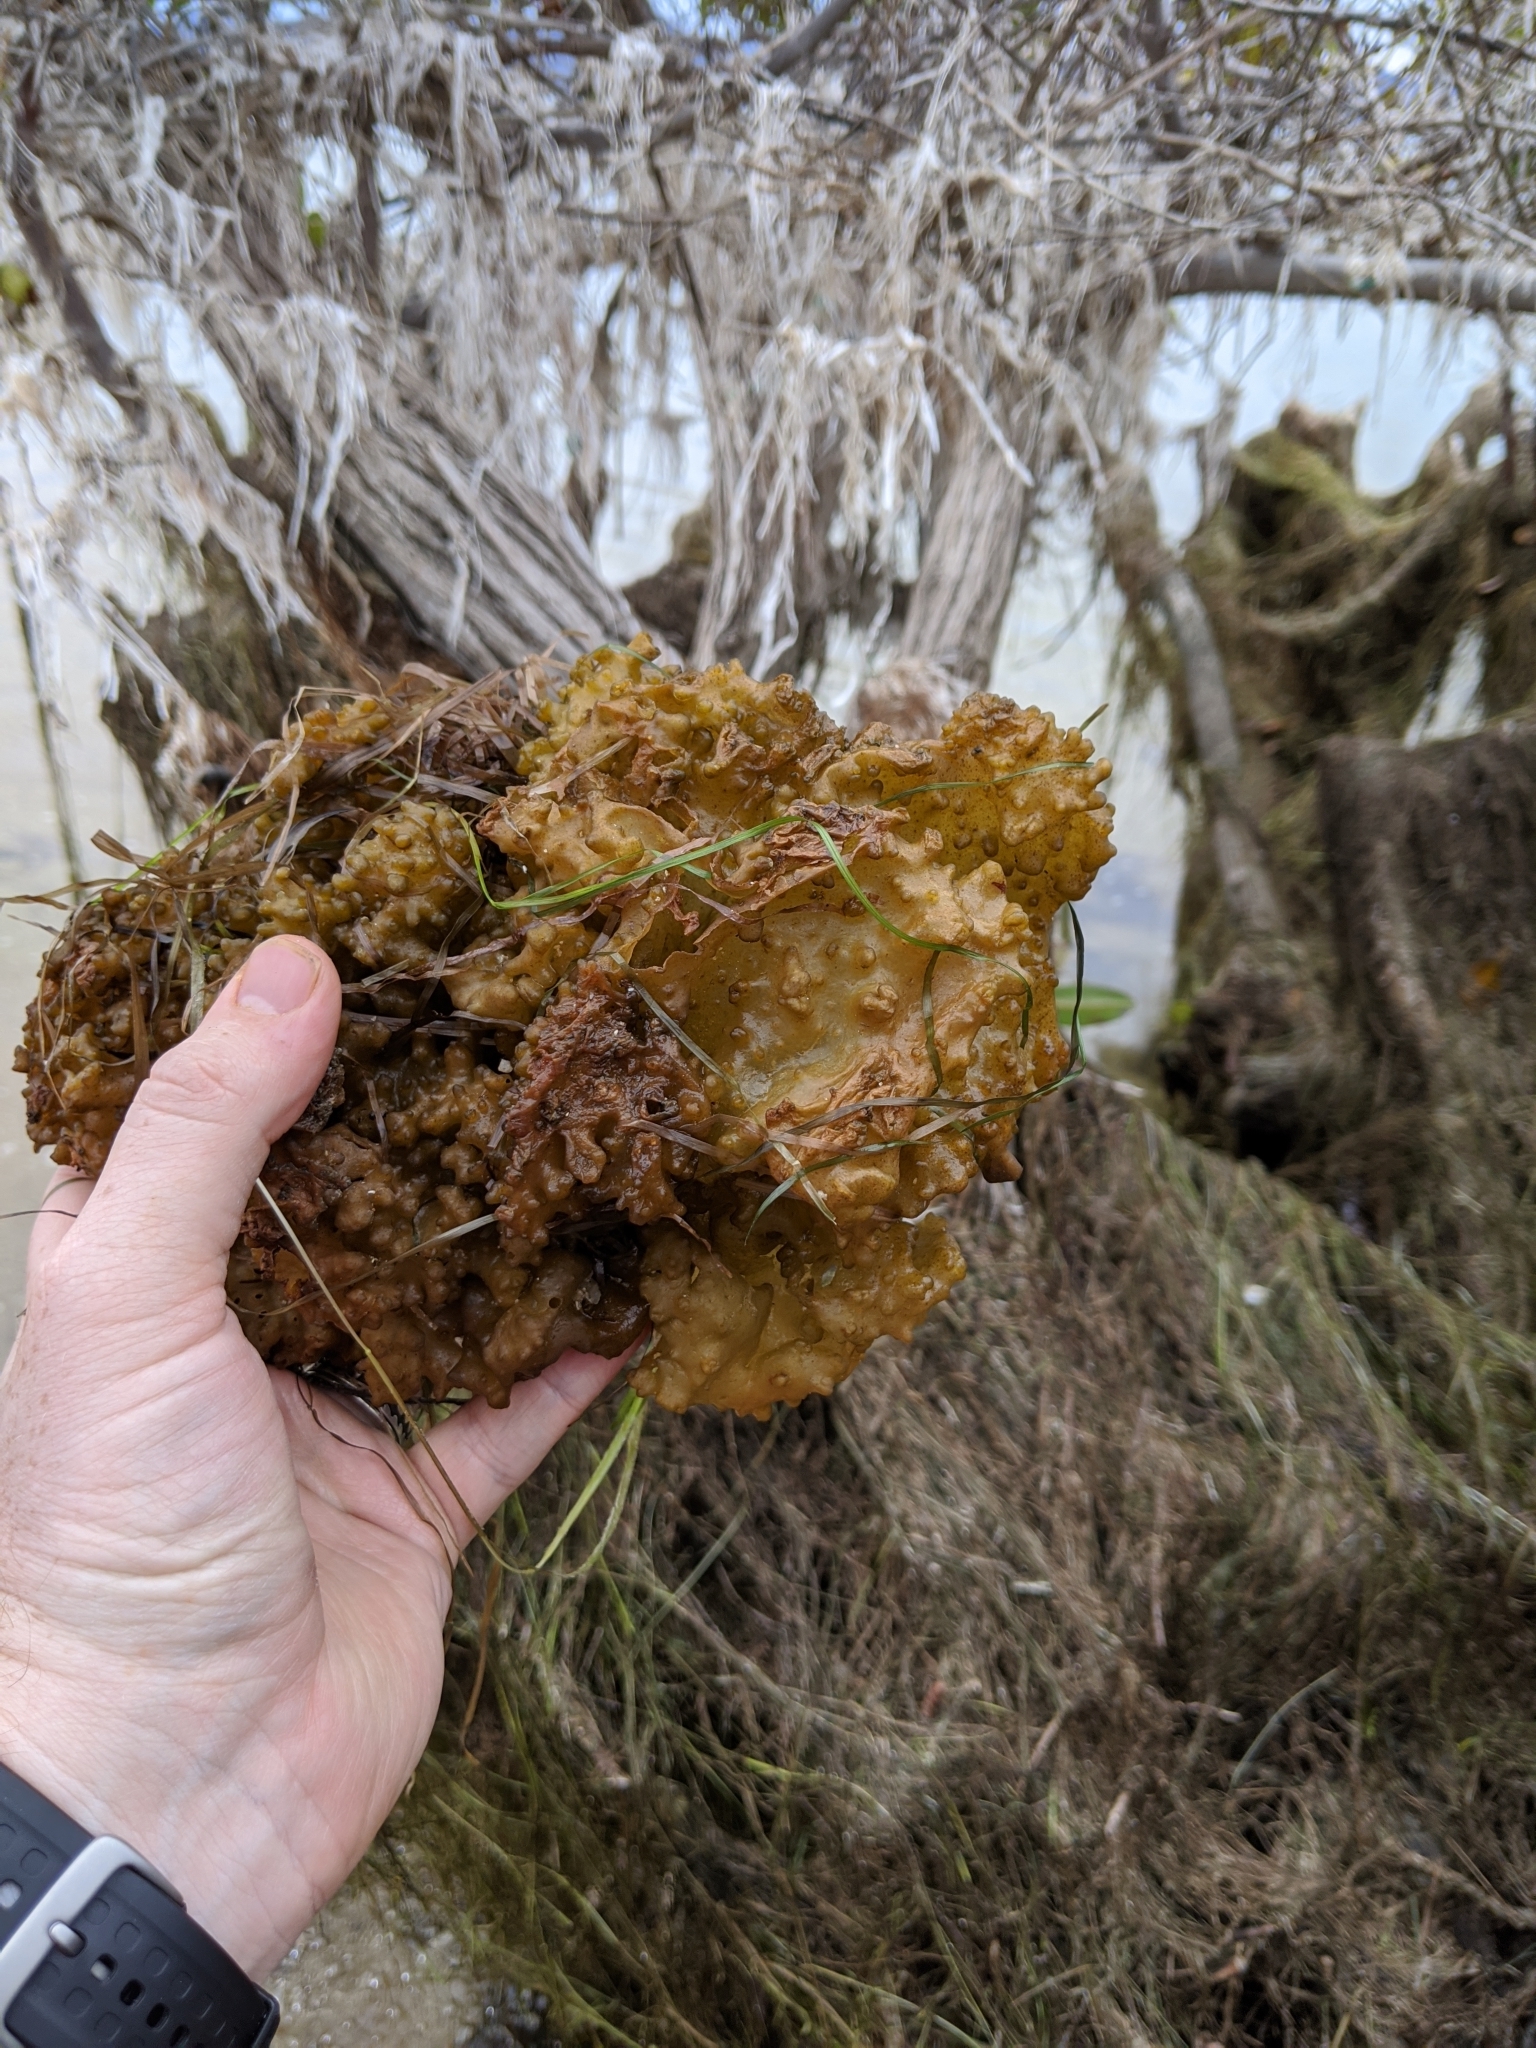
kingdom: Chromista
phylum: Ochrophyta
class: Phaeophyceae
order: Scytosiphonales
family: Scytosiphonaceae
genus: Colpomenia
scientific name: Colpomenia
